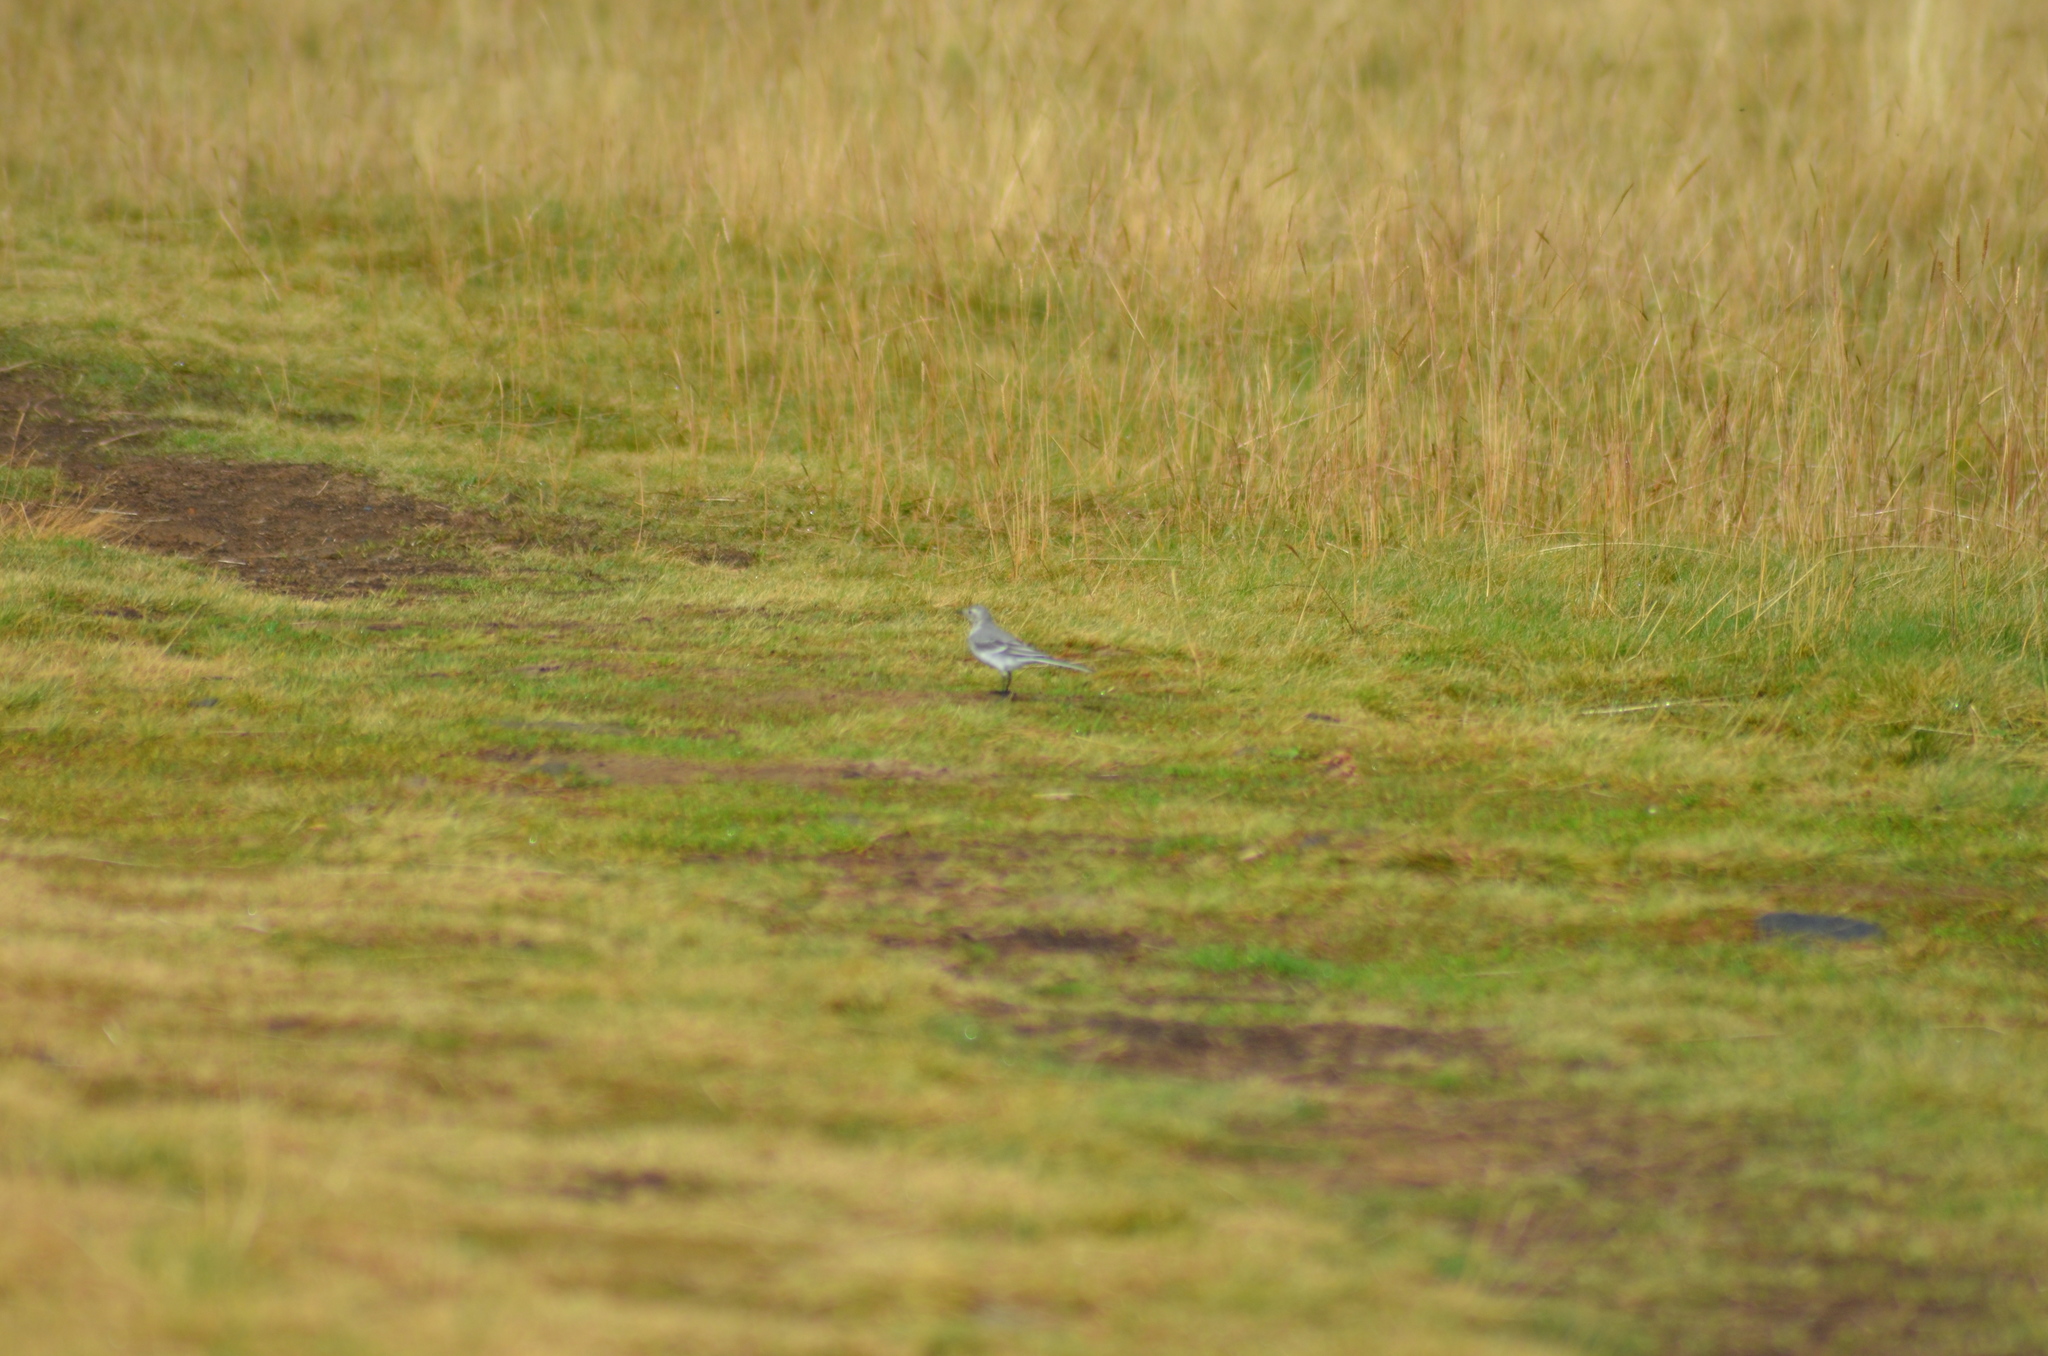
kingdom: Animalia
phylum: Chordata
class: Aves
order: Passeriformes
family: Motacillidae
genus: Motacilla
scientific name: Motacilla alba
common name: White wagtail
